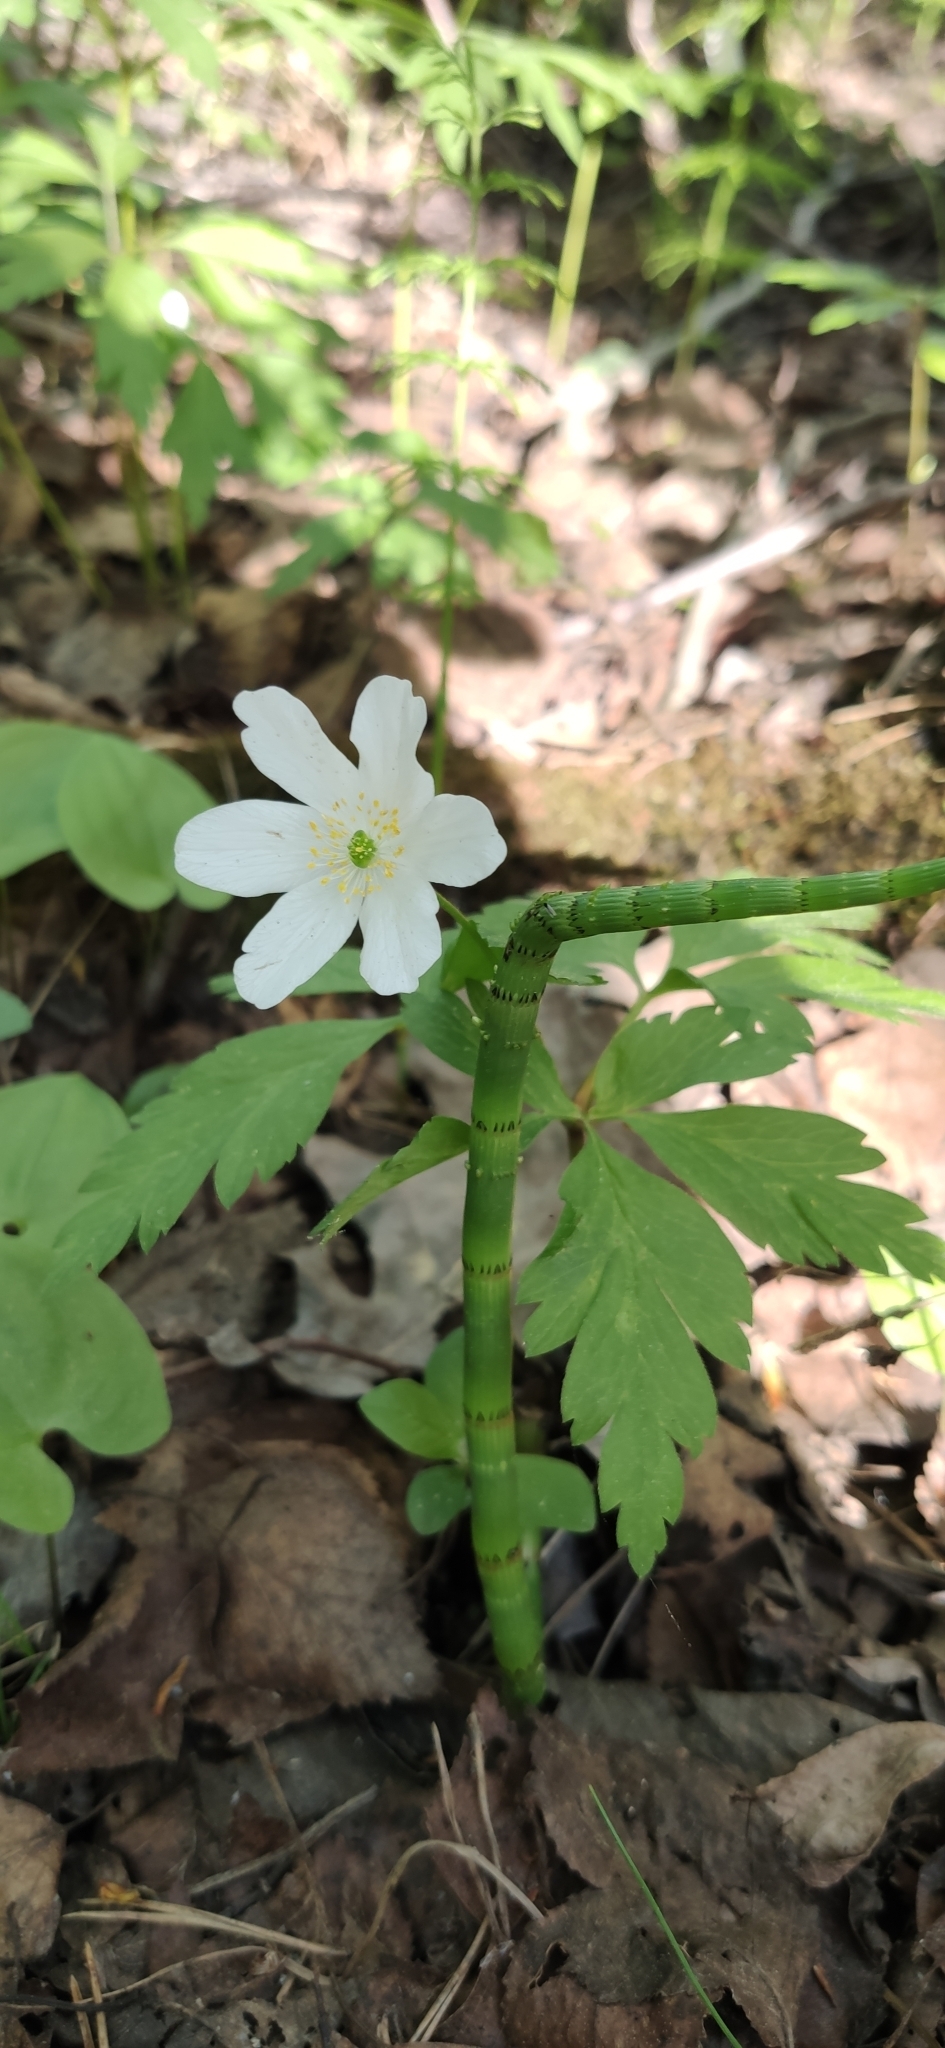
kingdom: Plantae
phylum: Tracheophyta
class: Magnoliopsida
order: Ranunculales
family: Ranunculaceae
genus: Anemone
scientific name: Anemone nemorosa
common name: Wood anemone
